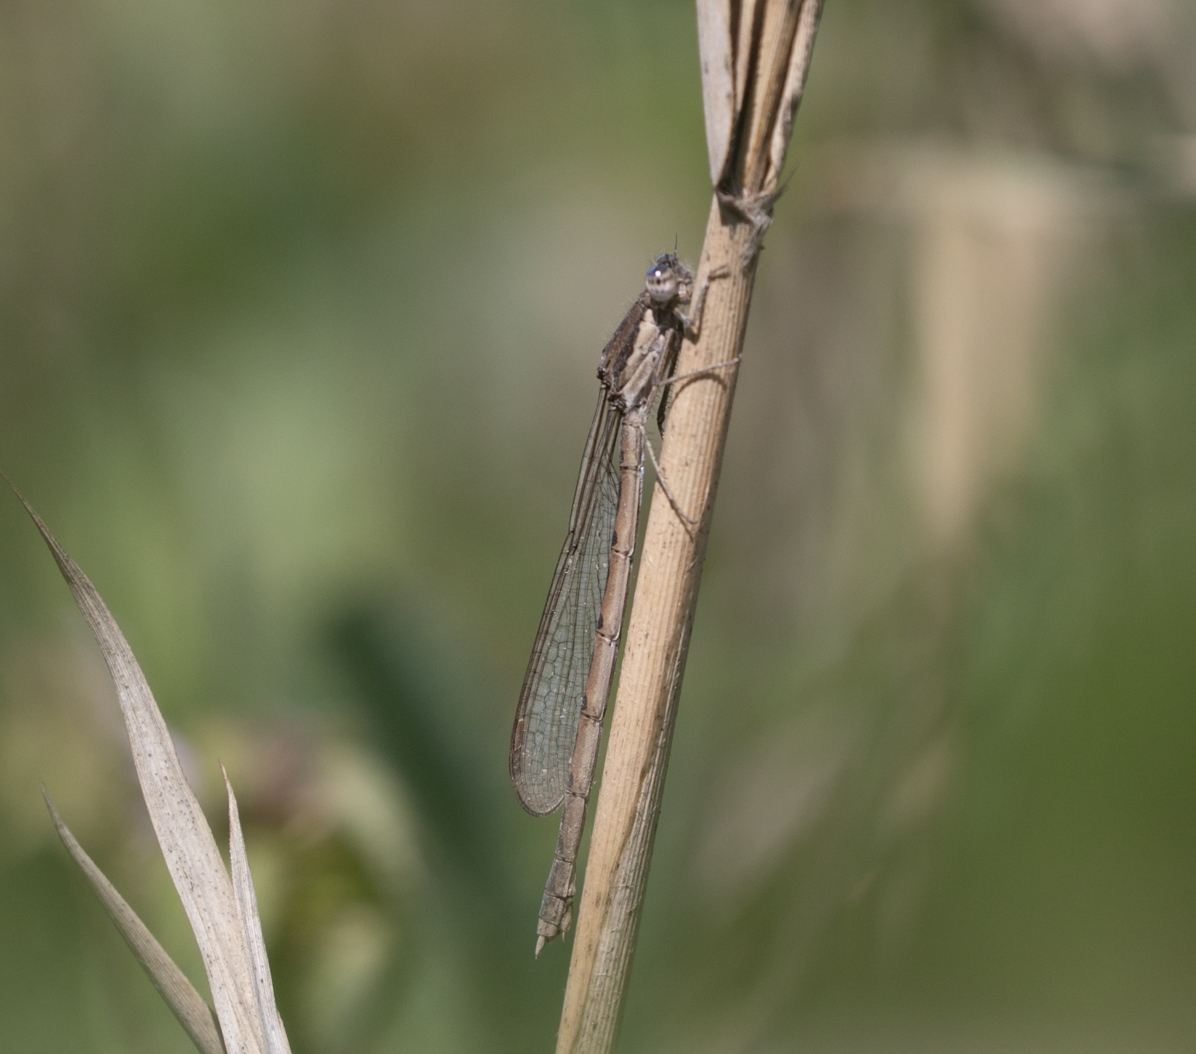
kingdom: Animalia
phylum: Arthropoda
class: Insecta
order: Odonata
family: Lestidae
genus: Sympecma
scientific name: Sympecma fusca
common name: Common winter damsel
